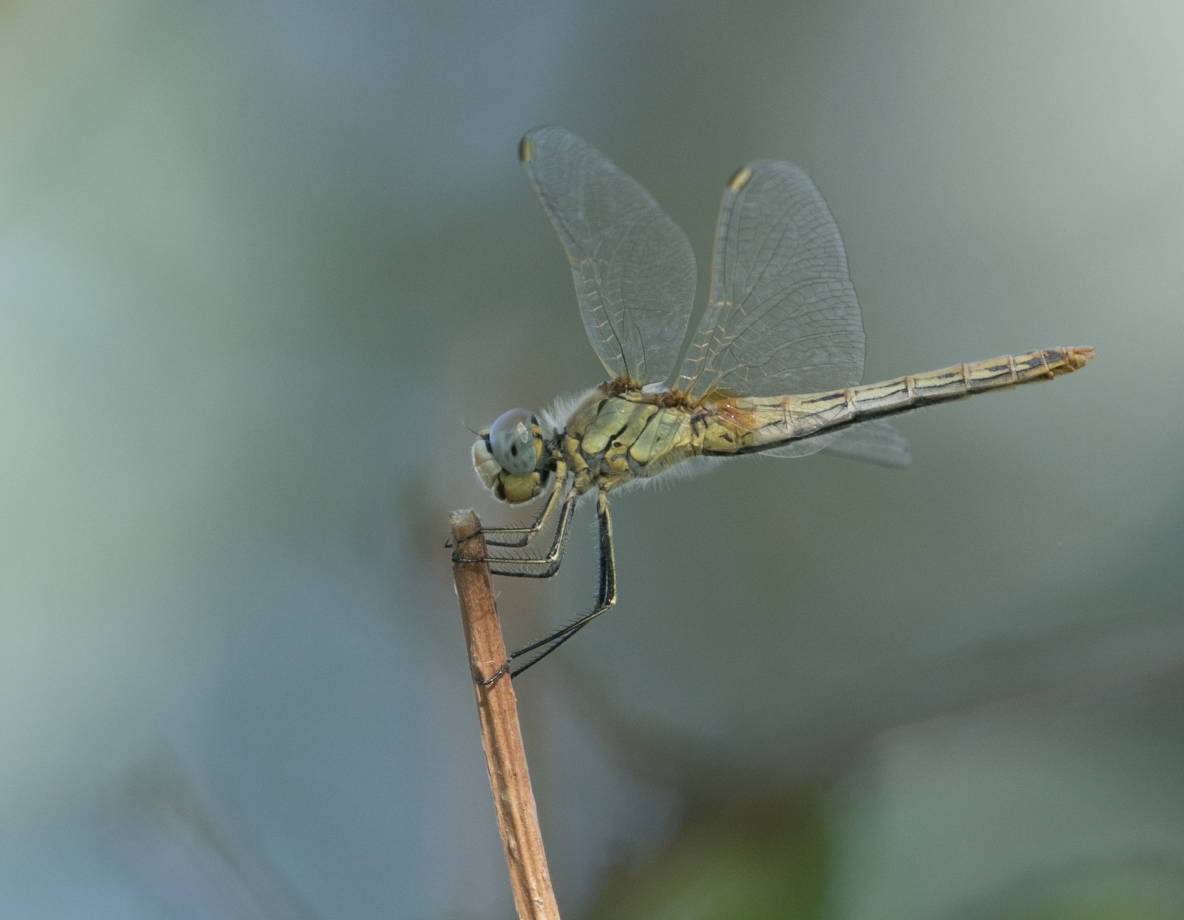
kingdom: Animalia
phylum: Arthropoda
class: Insecta
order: Odonata
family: Libellulidae
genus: Sympetrum
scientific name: Sympetrum fonscolombii
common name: Red-veined darter
